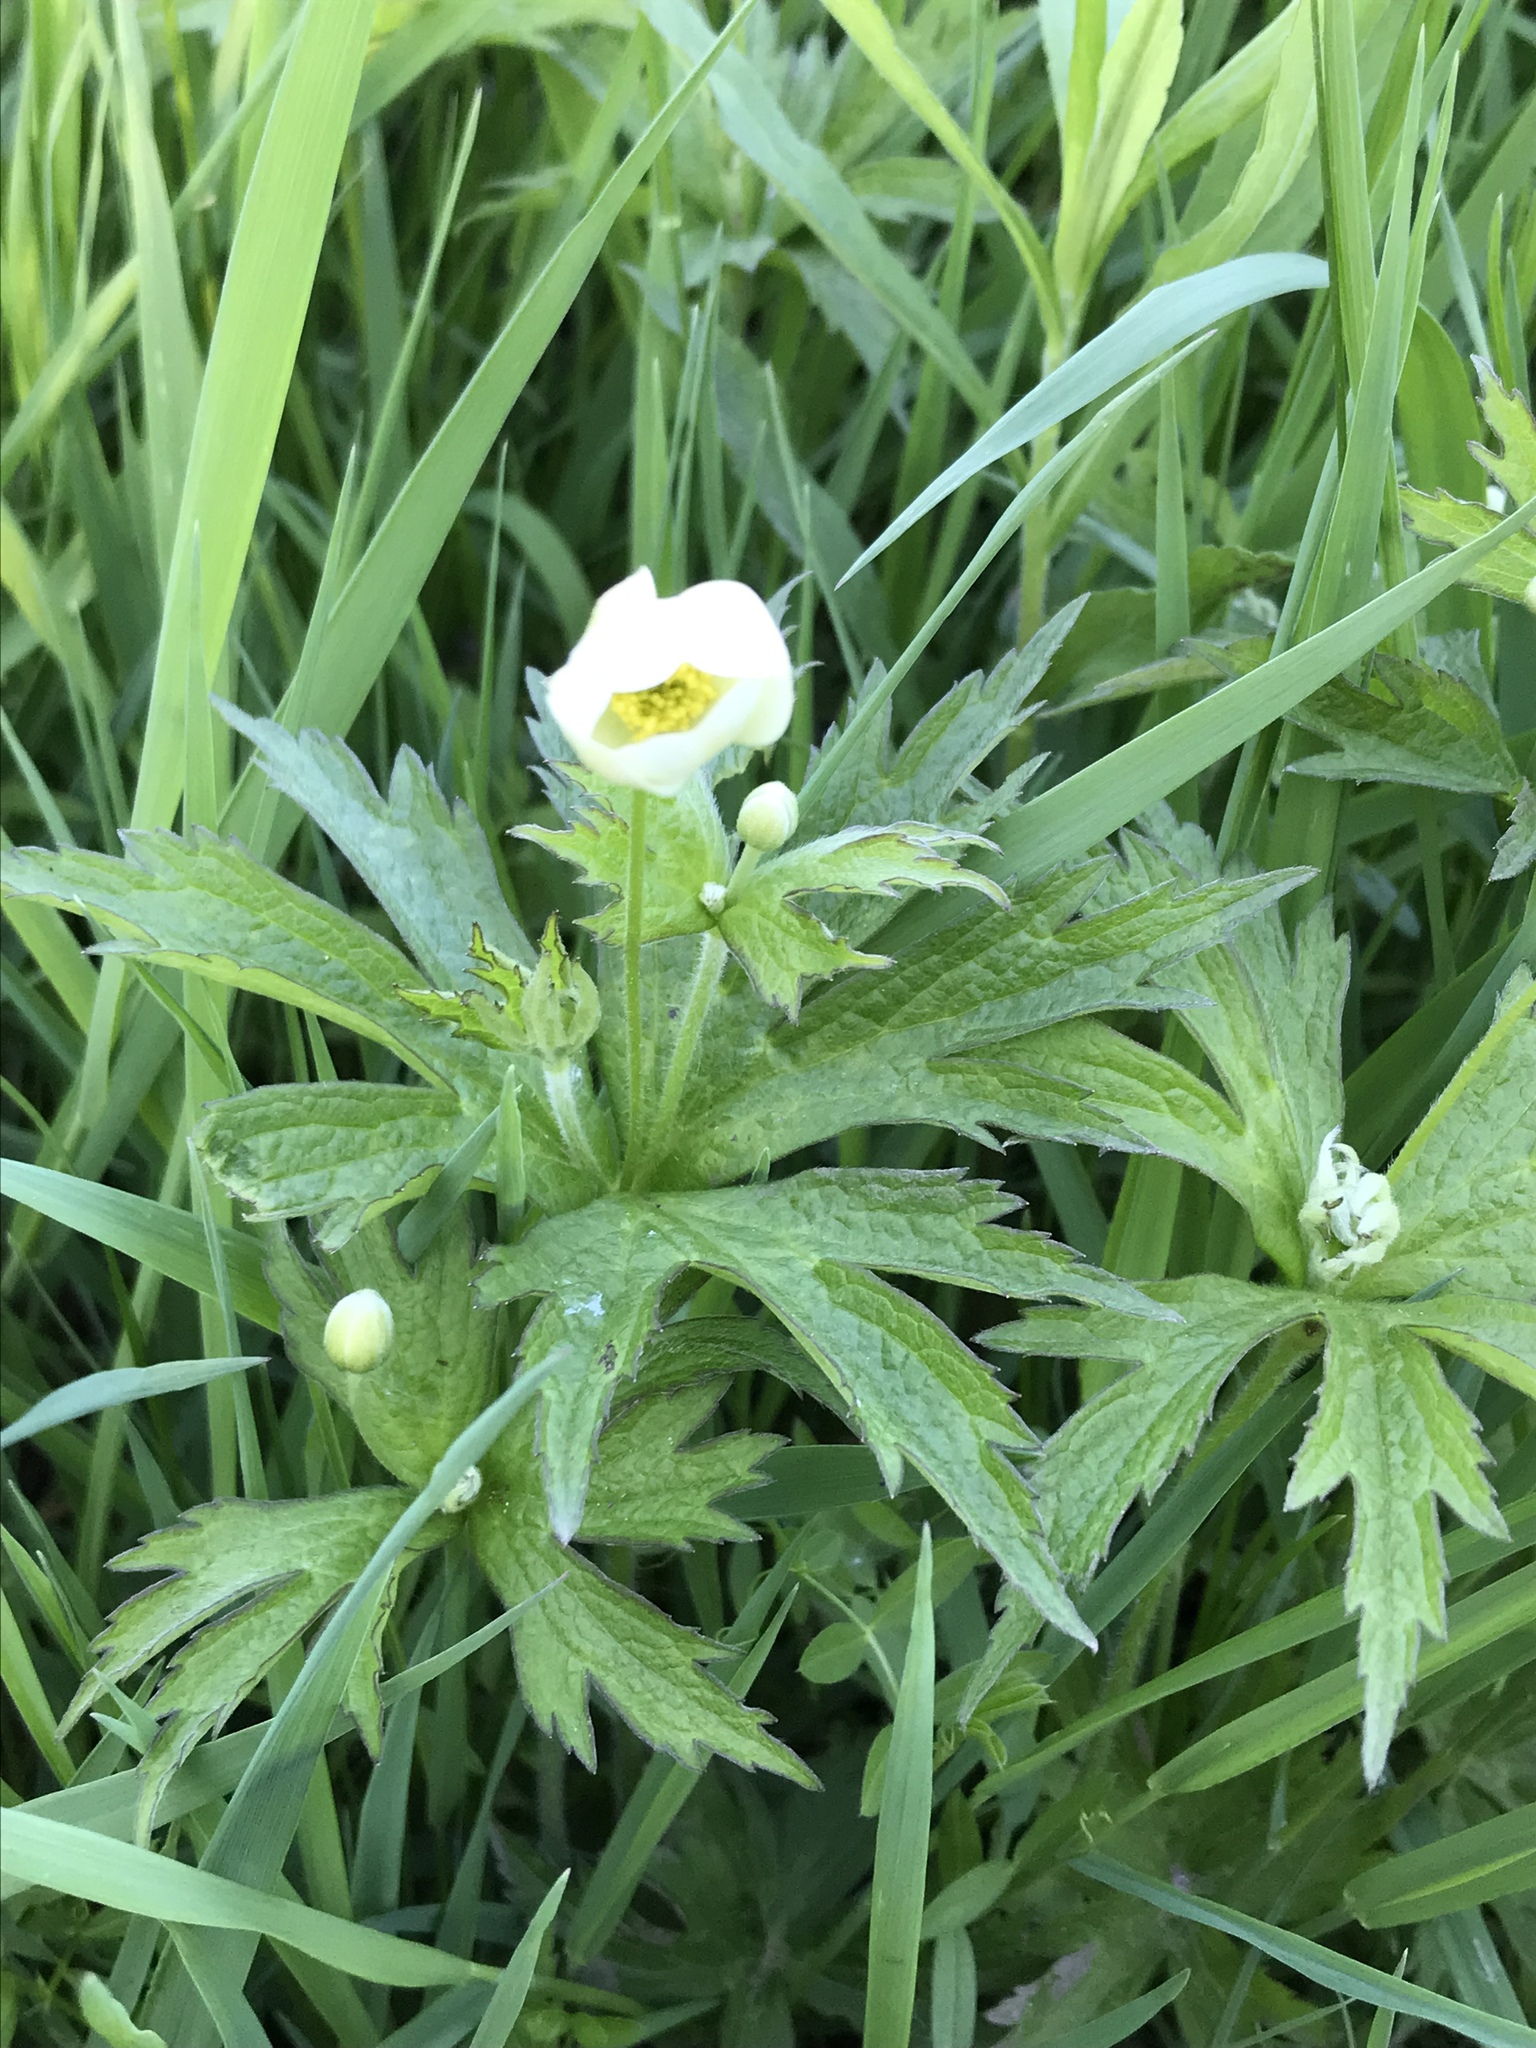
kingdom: Plantae
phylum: Tracheophyta
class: Magnoliopsida
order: Ranunculales
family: Ranunculaceae
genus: Anemonastrum
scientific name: Anemonastrum canadense
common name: Canada anemone
